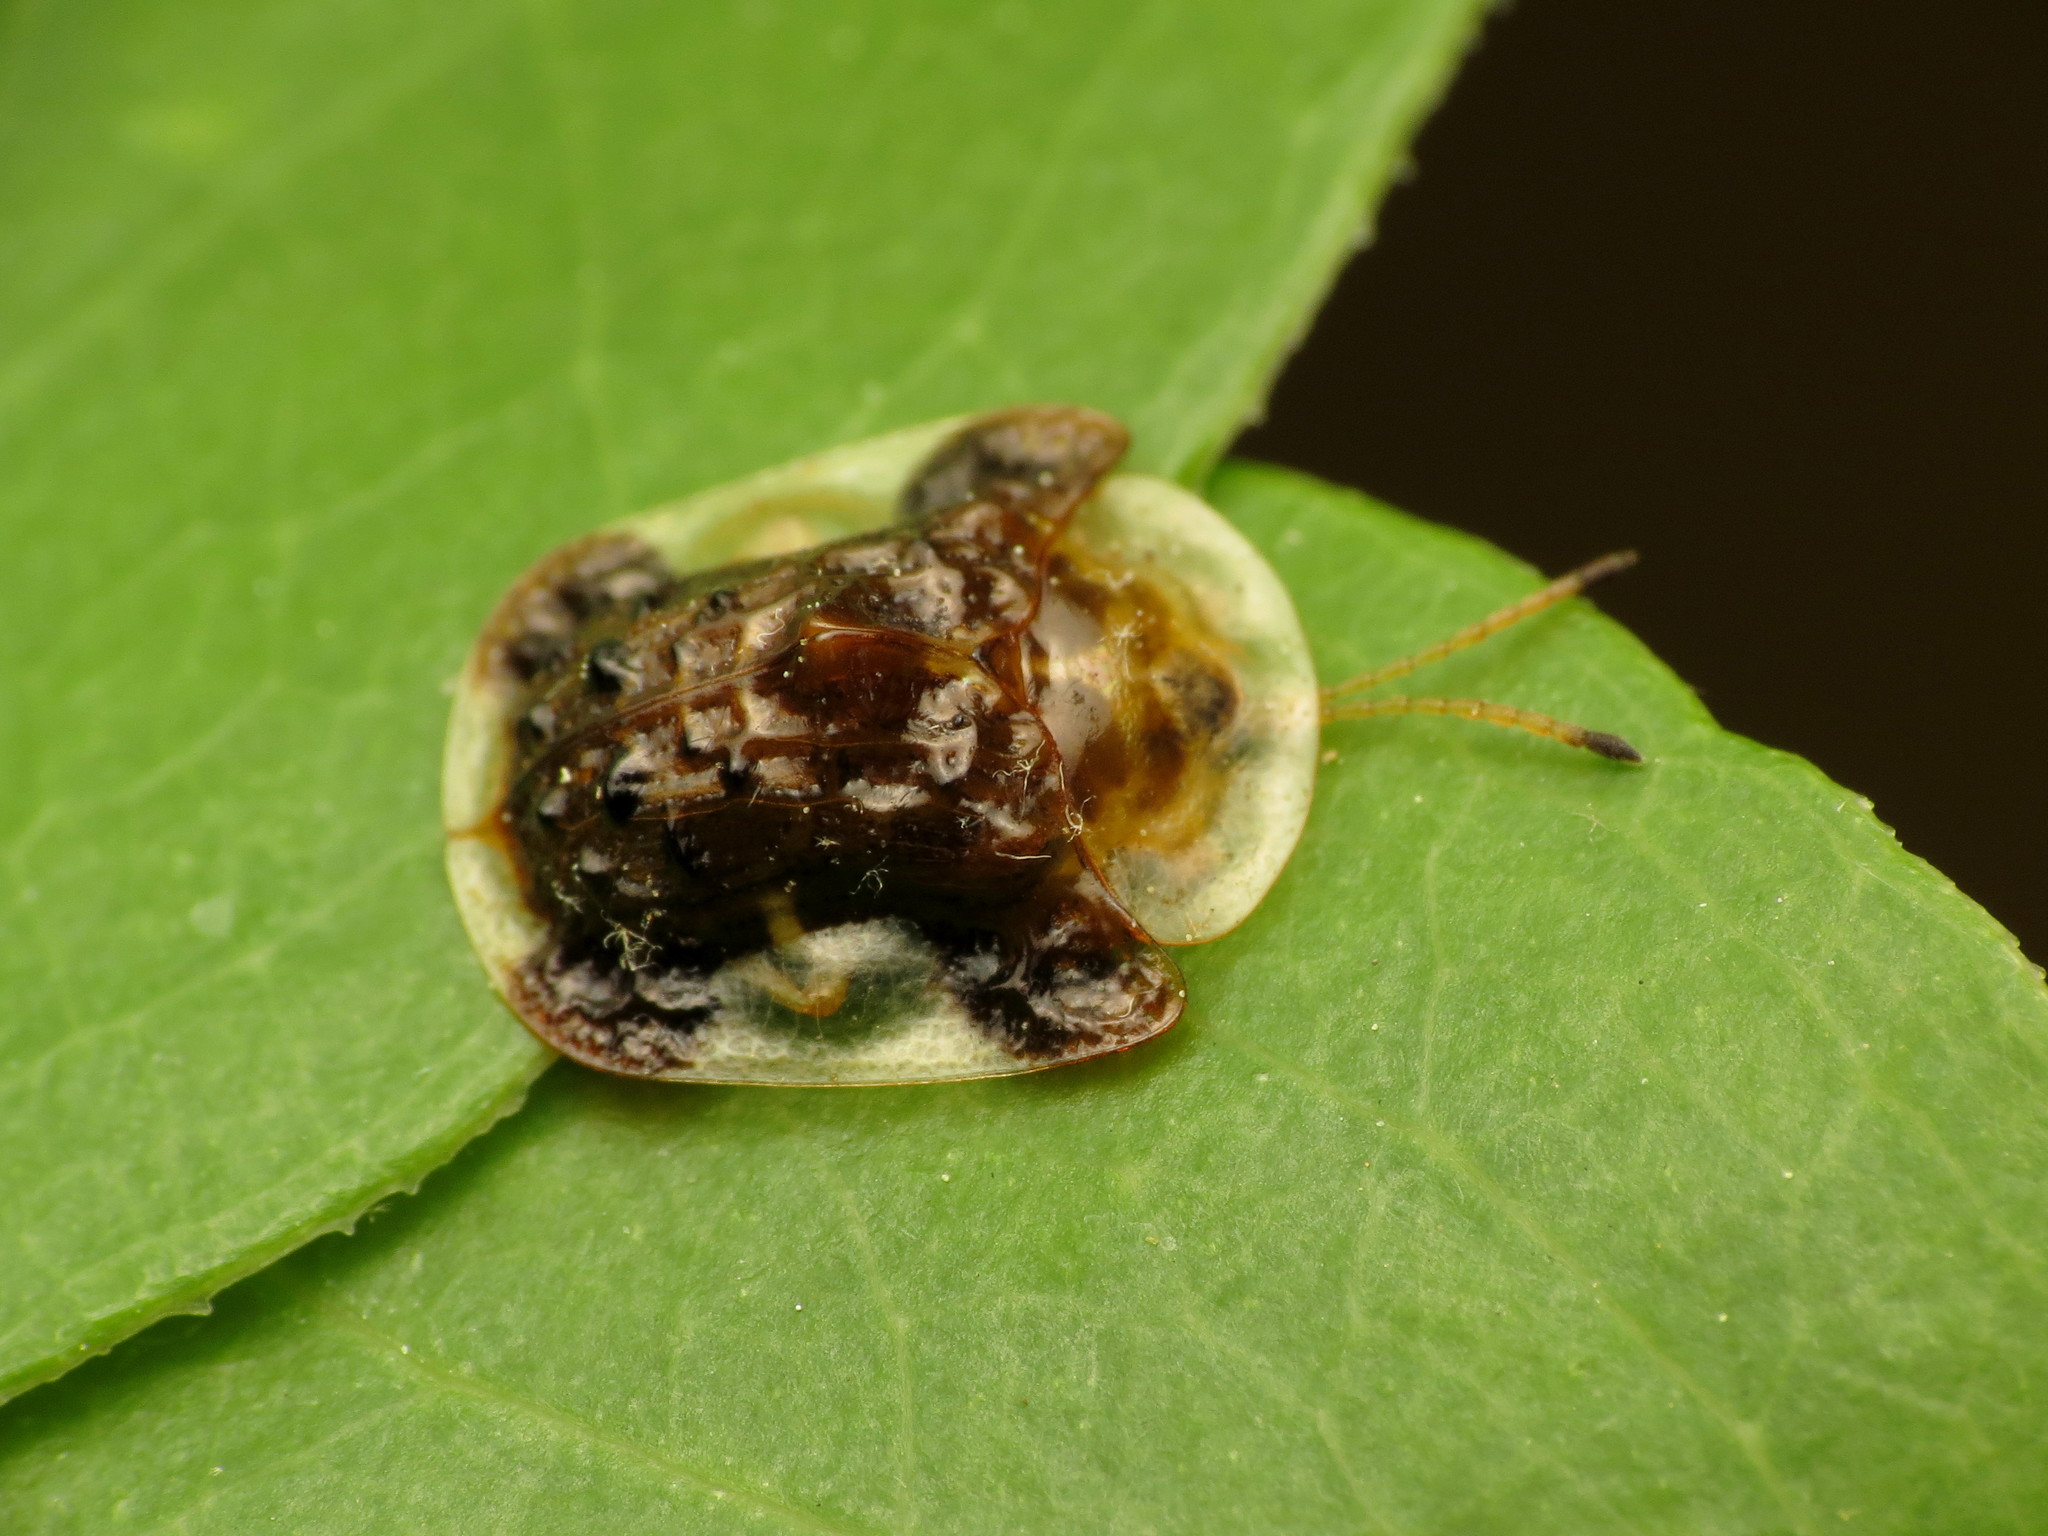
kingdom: Animalia
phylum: Arthropoda
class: Insecta
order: Coleoptera
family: Chrysomelidae
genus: Helocassis
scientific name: Helocassis clavata
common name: Clavate tortoise beetle
